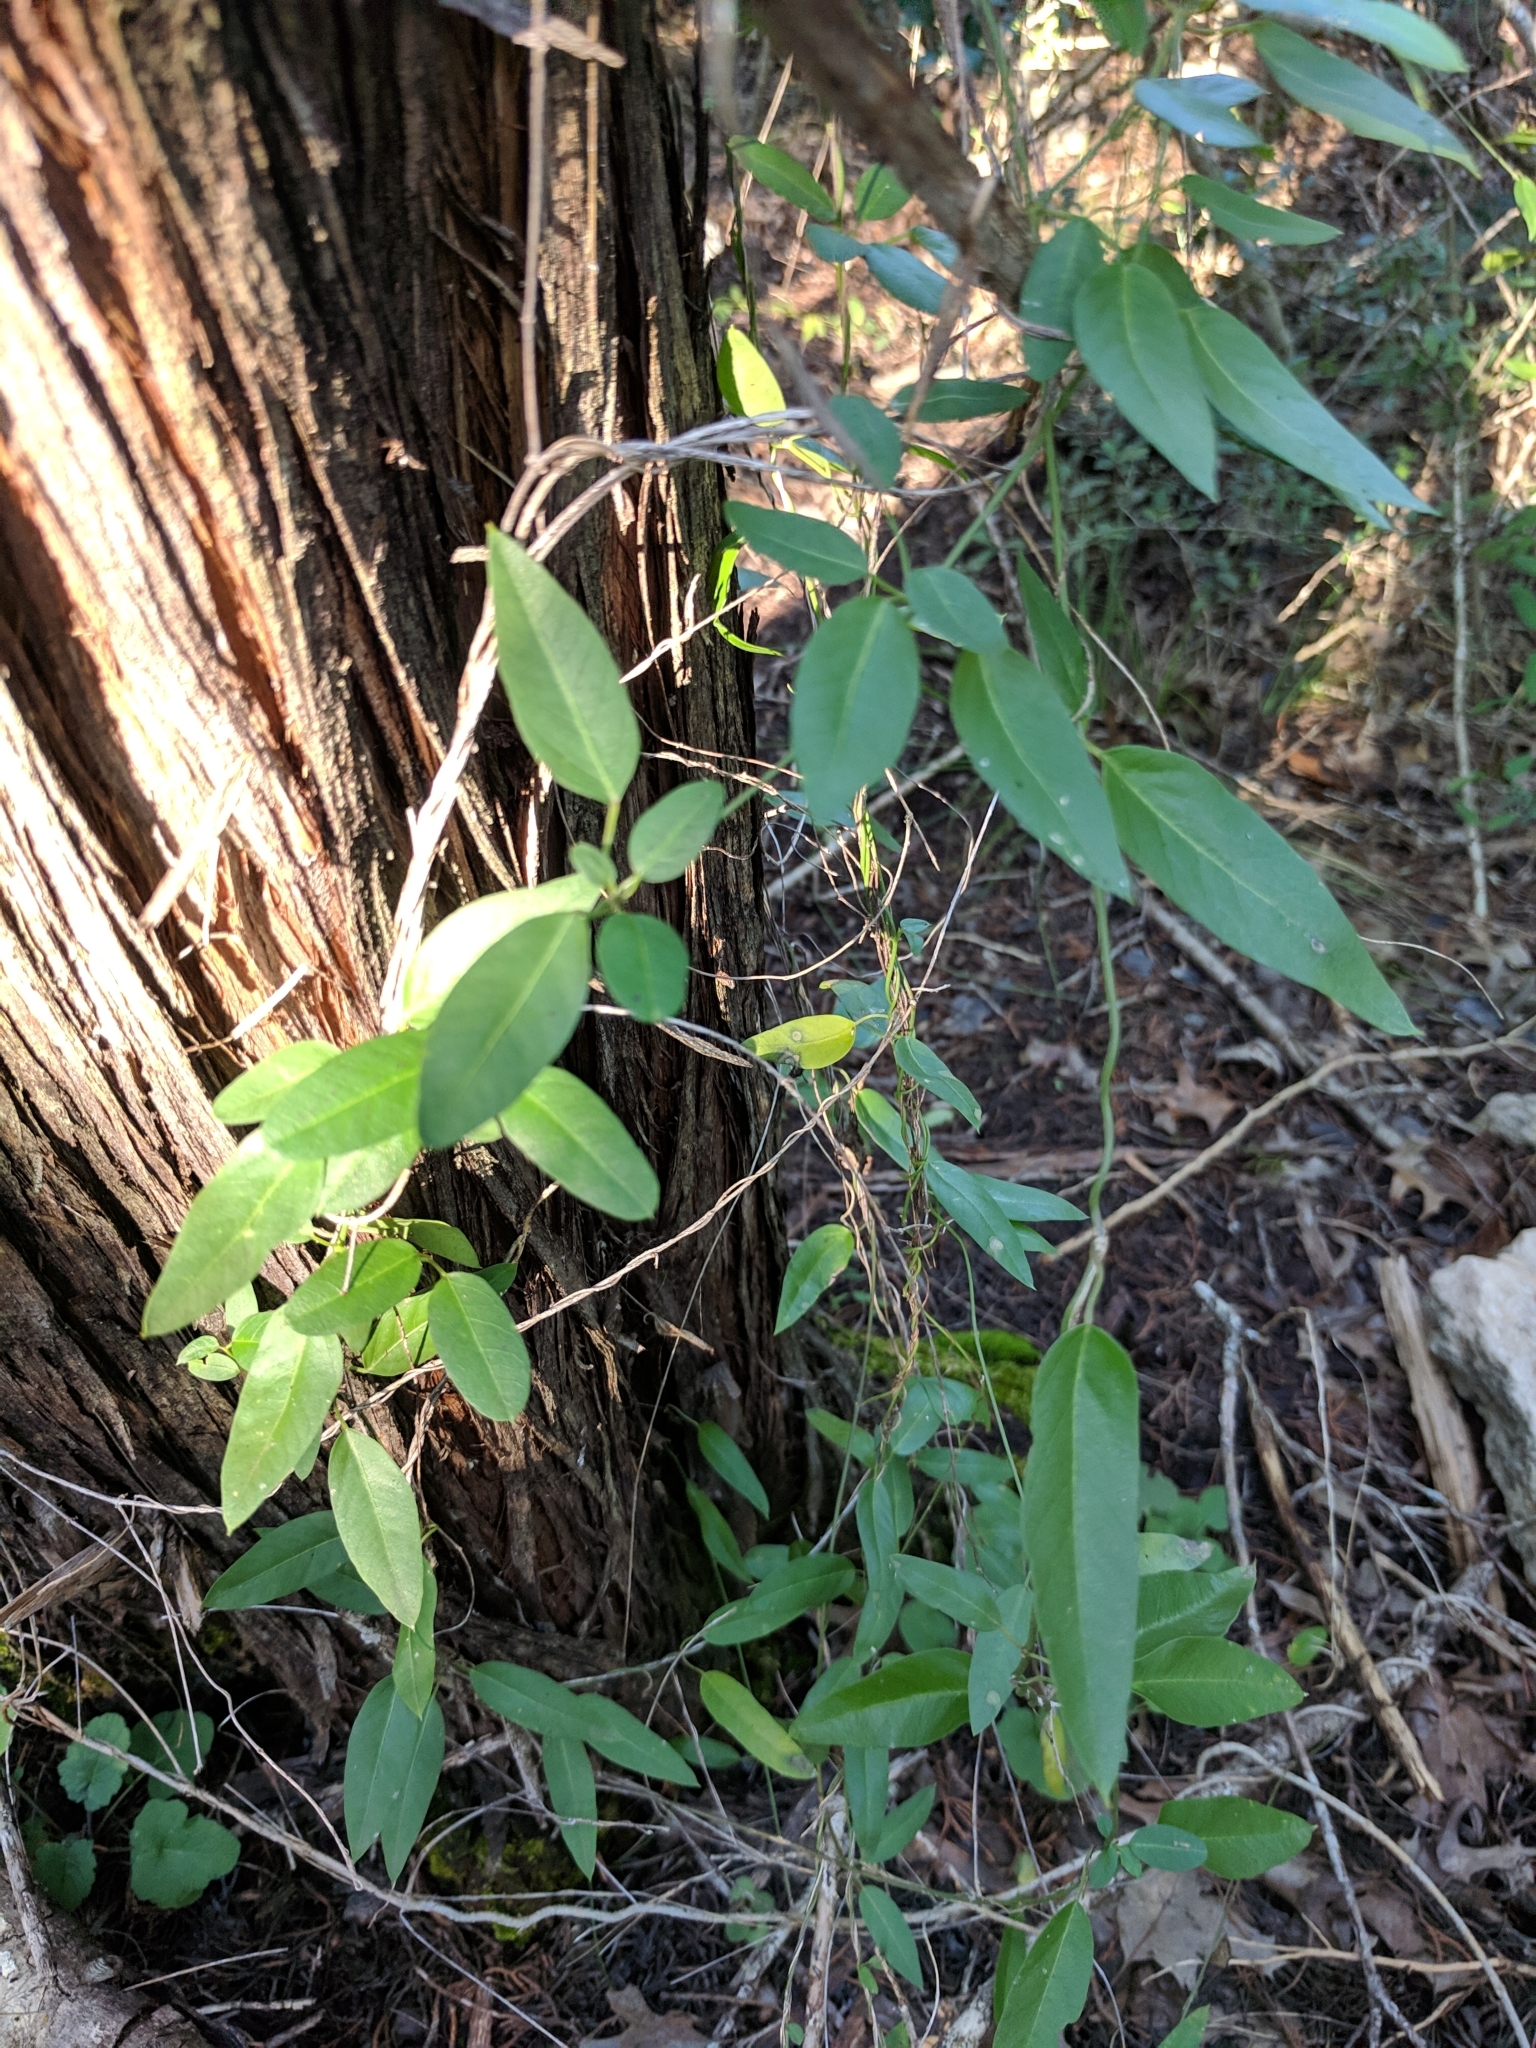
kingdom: Plantae
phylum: Tracheophyta
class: Magnoliopsida
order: Gentianales
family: Apocynaceae
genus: Metastelma
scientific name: Metastelma barbigerum
